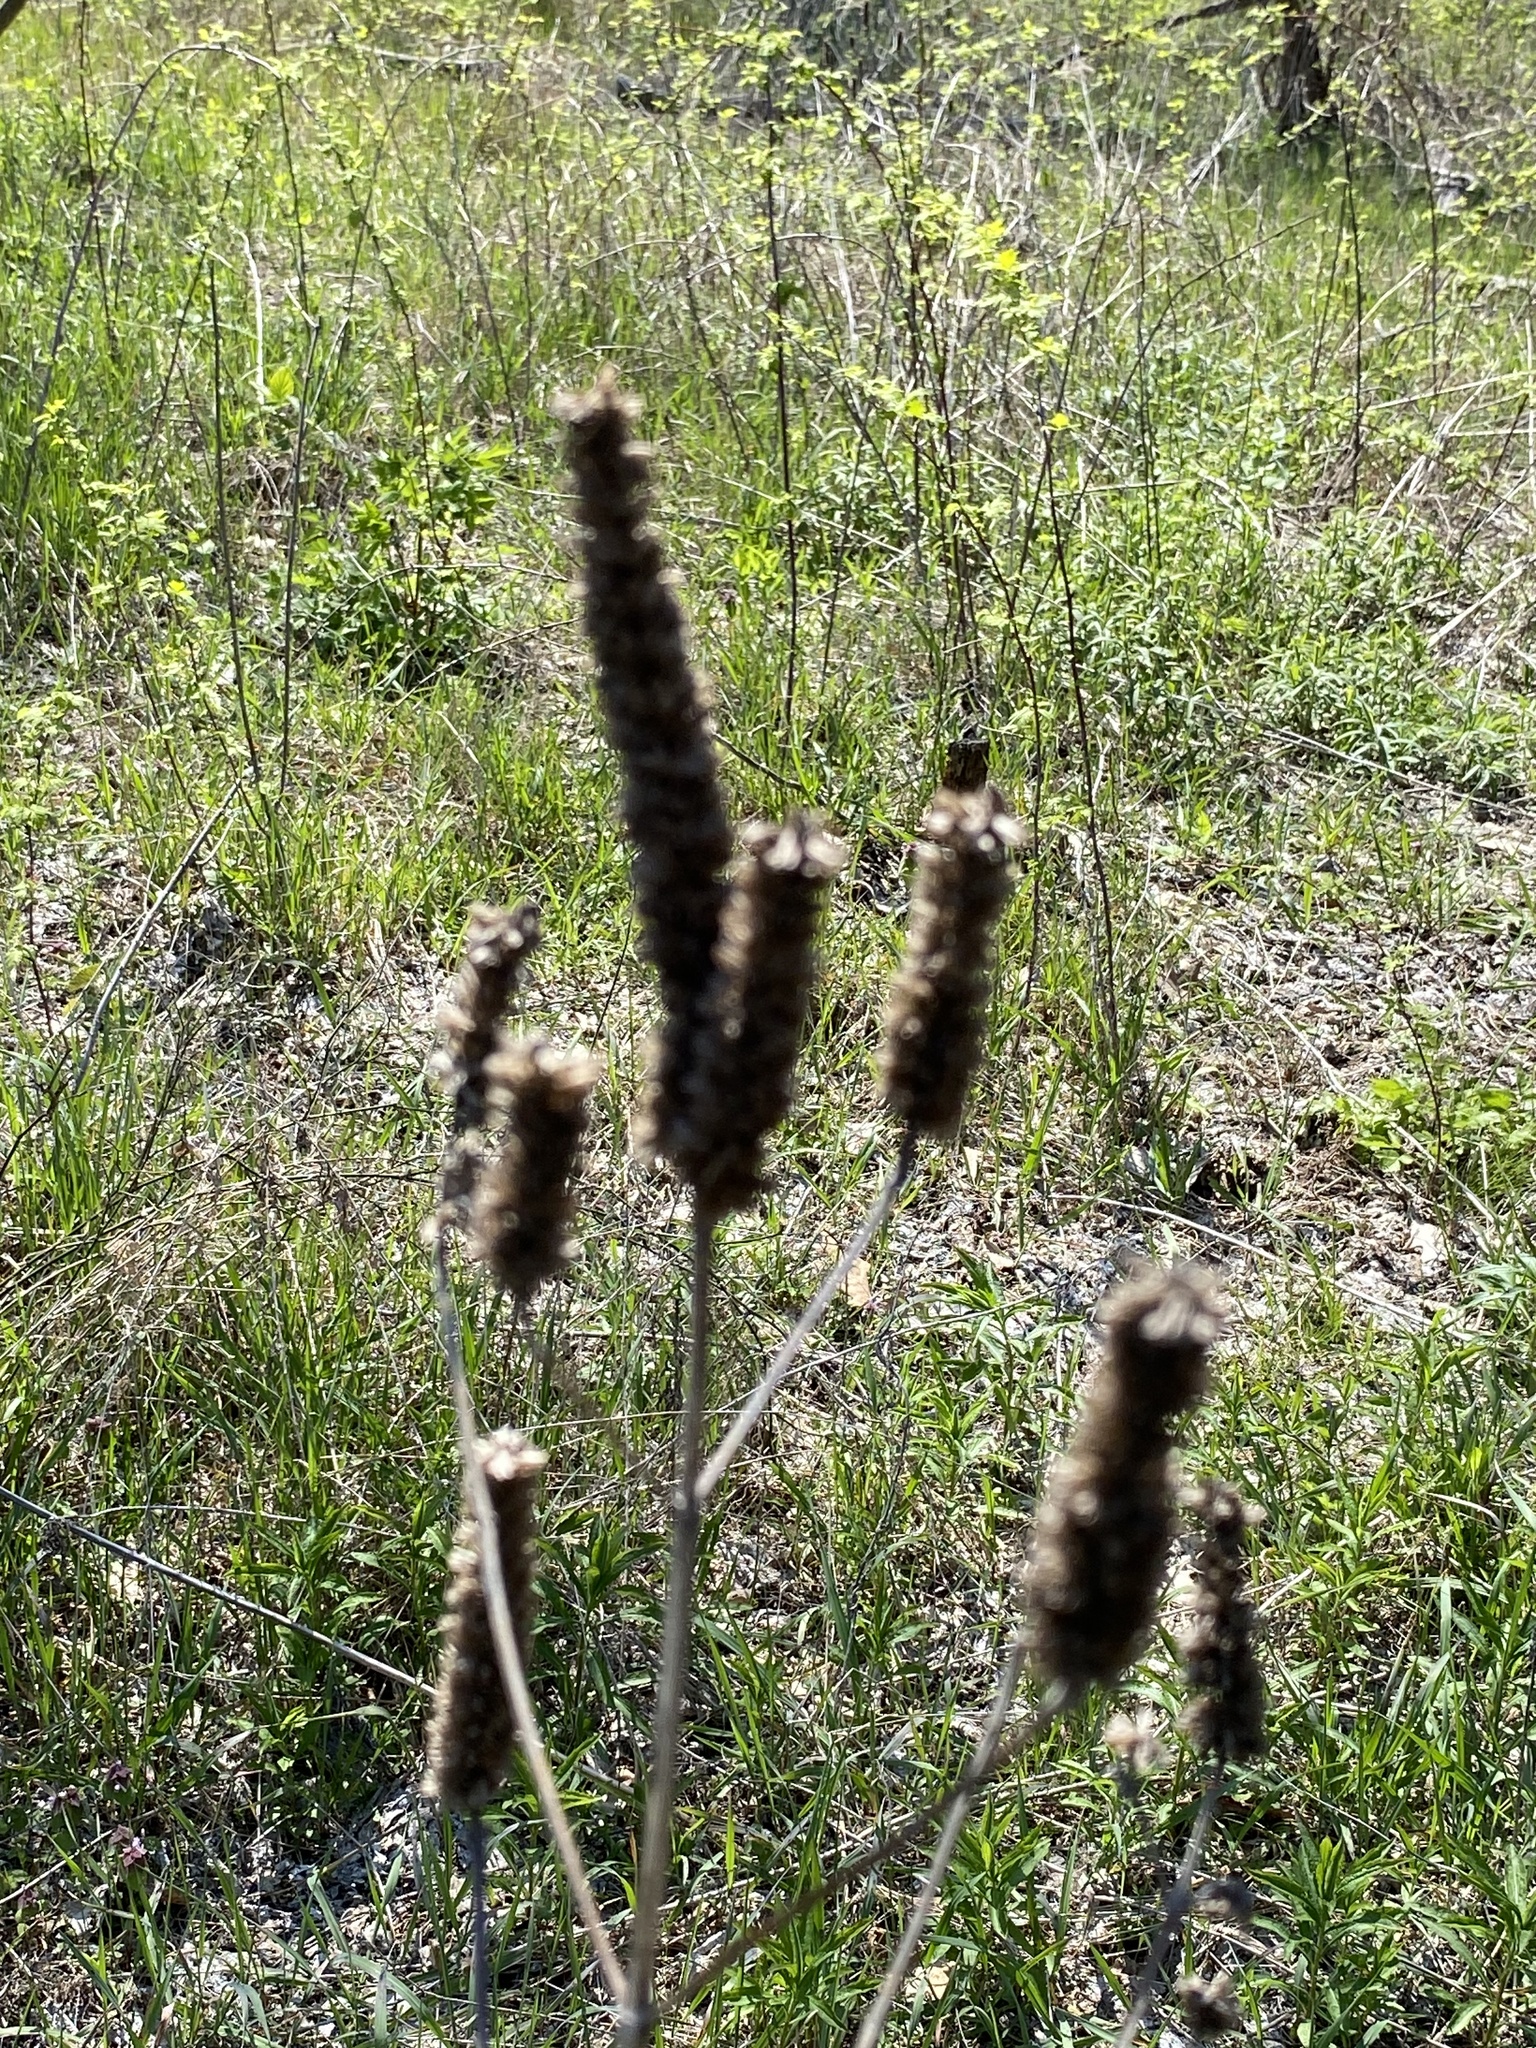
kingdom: Plantae
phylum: Tracheophyta
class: Magnoliopsida
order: Lamiales
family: Lamiaceae
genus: Agastache
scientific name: Agastache nepetoides
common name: Catnip giant hyssop
